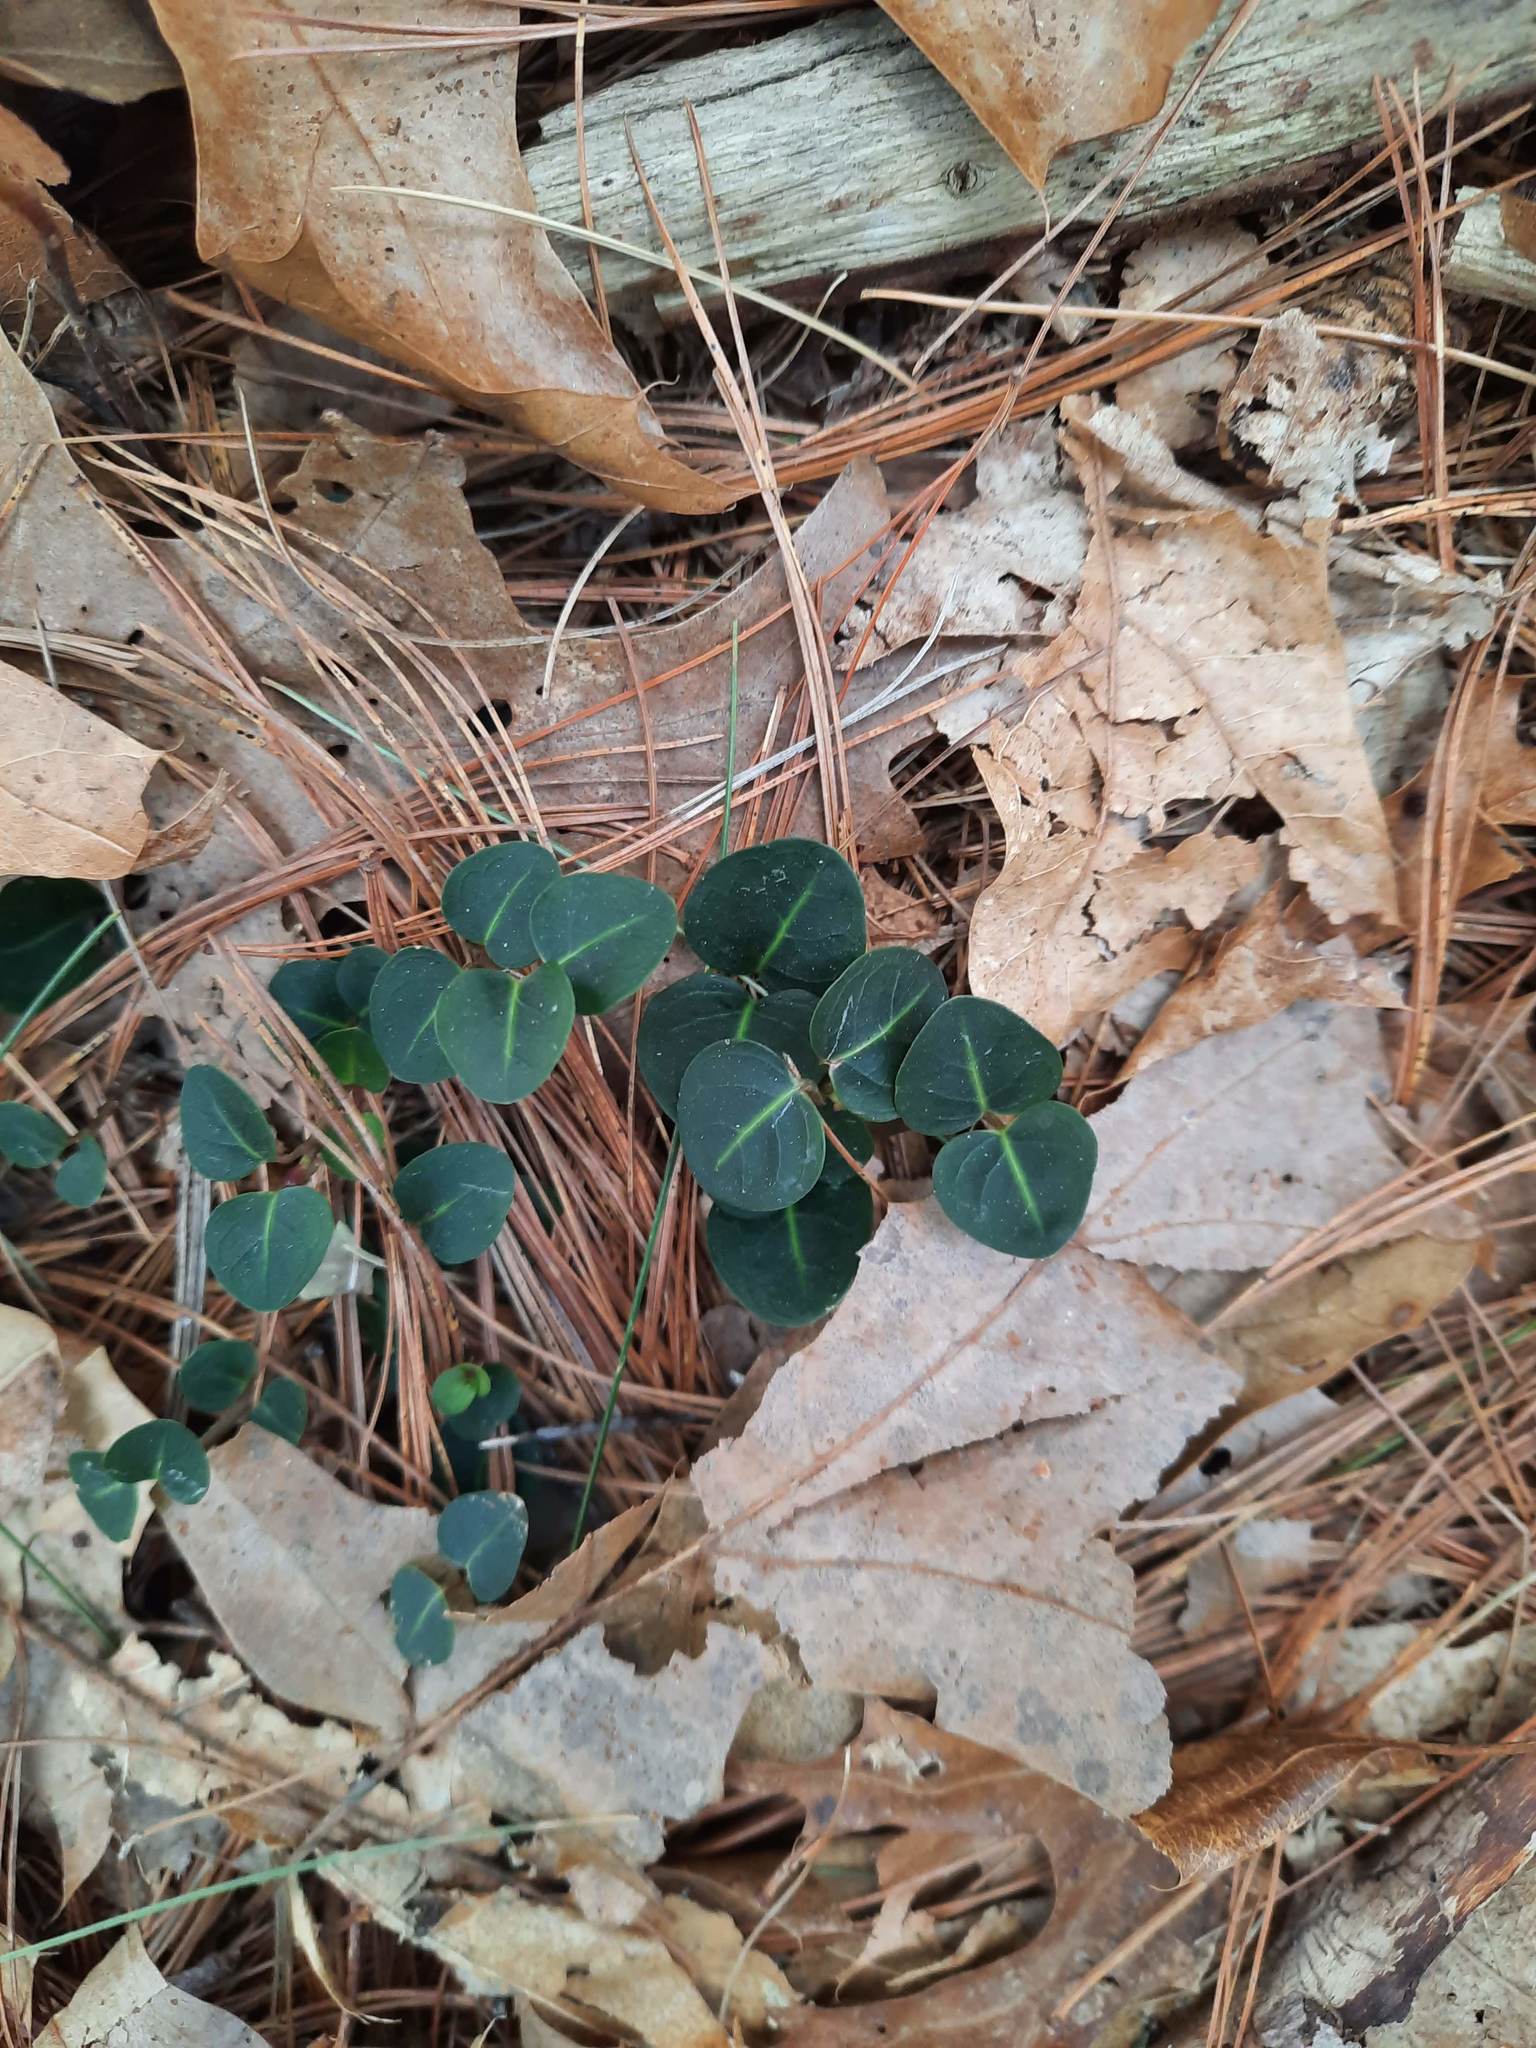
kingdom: Plantae
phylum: Tracheophyta
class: Magnoliopsida
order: Gentianales
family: Rubiaceae
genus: Mitchella
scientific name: Mitchella repens
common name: Partridge-berry
